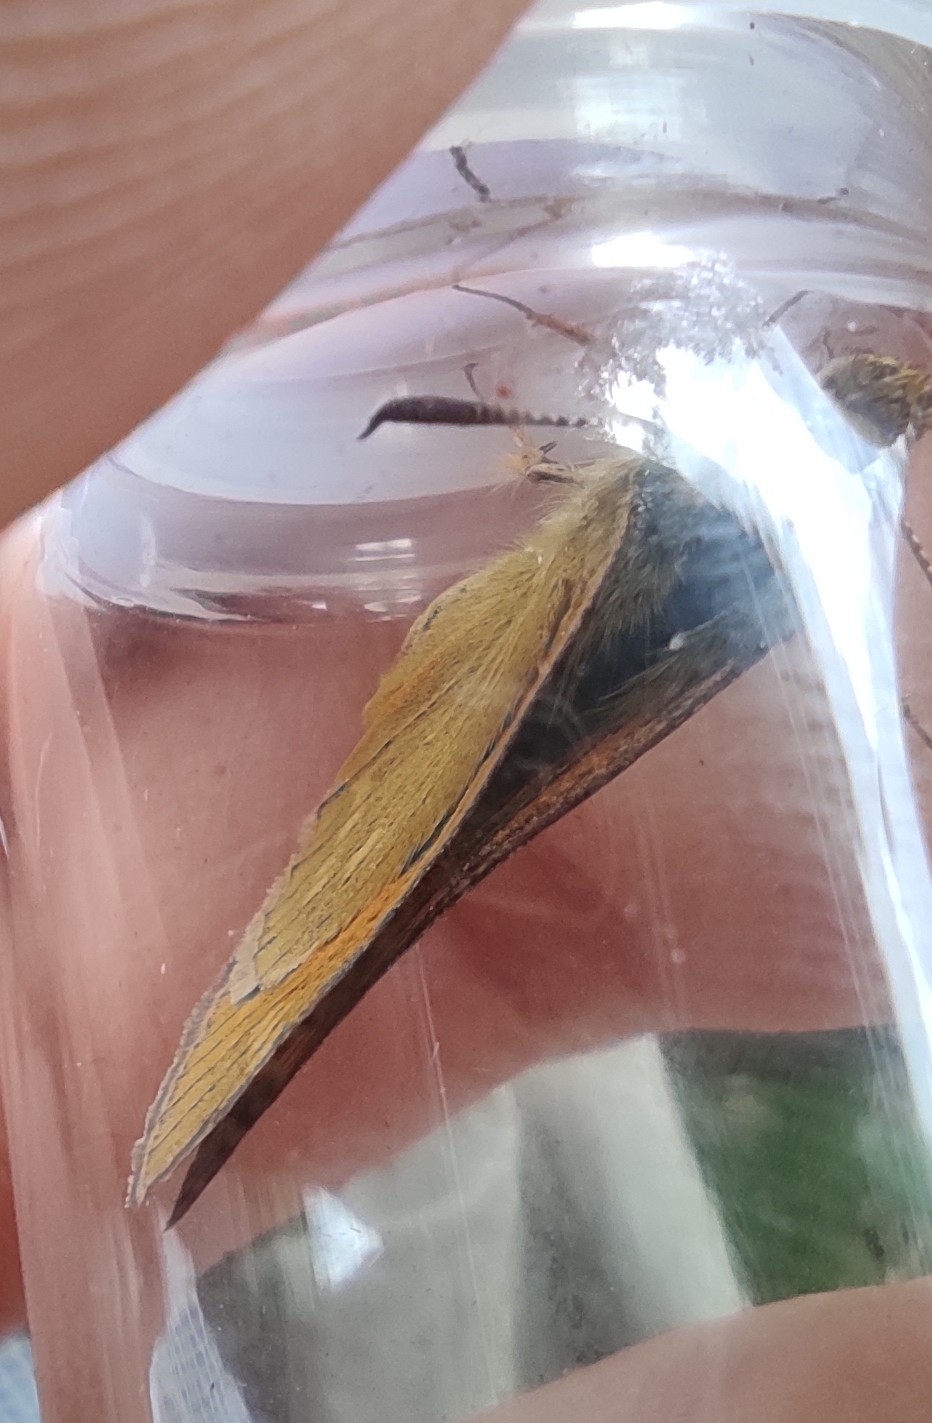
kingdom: Animalia
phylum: Arthropoda
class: Insecta
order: Lepidoptera
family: Hesperiidae
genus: Ochlodes
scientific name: Ochlodes venata
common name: Large skipper
